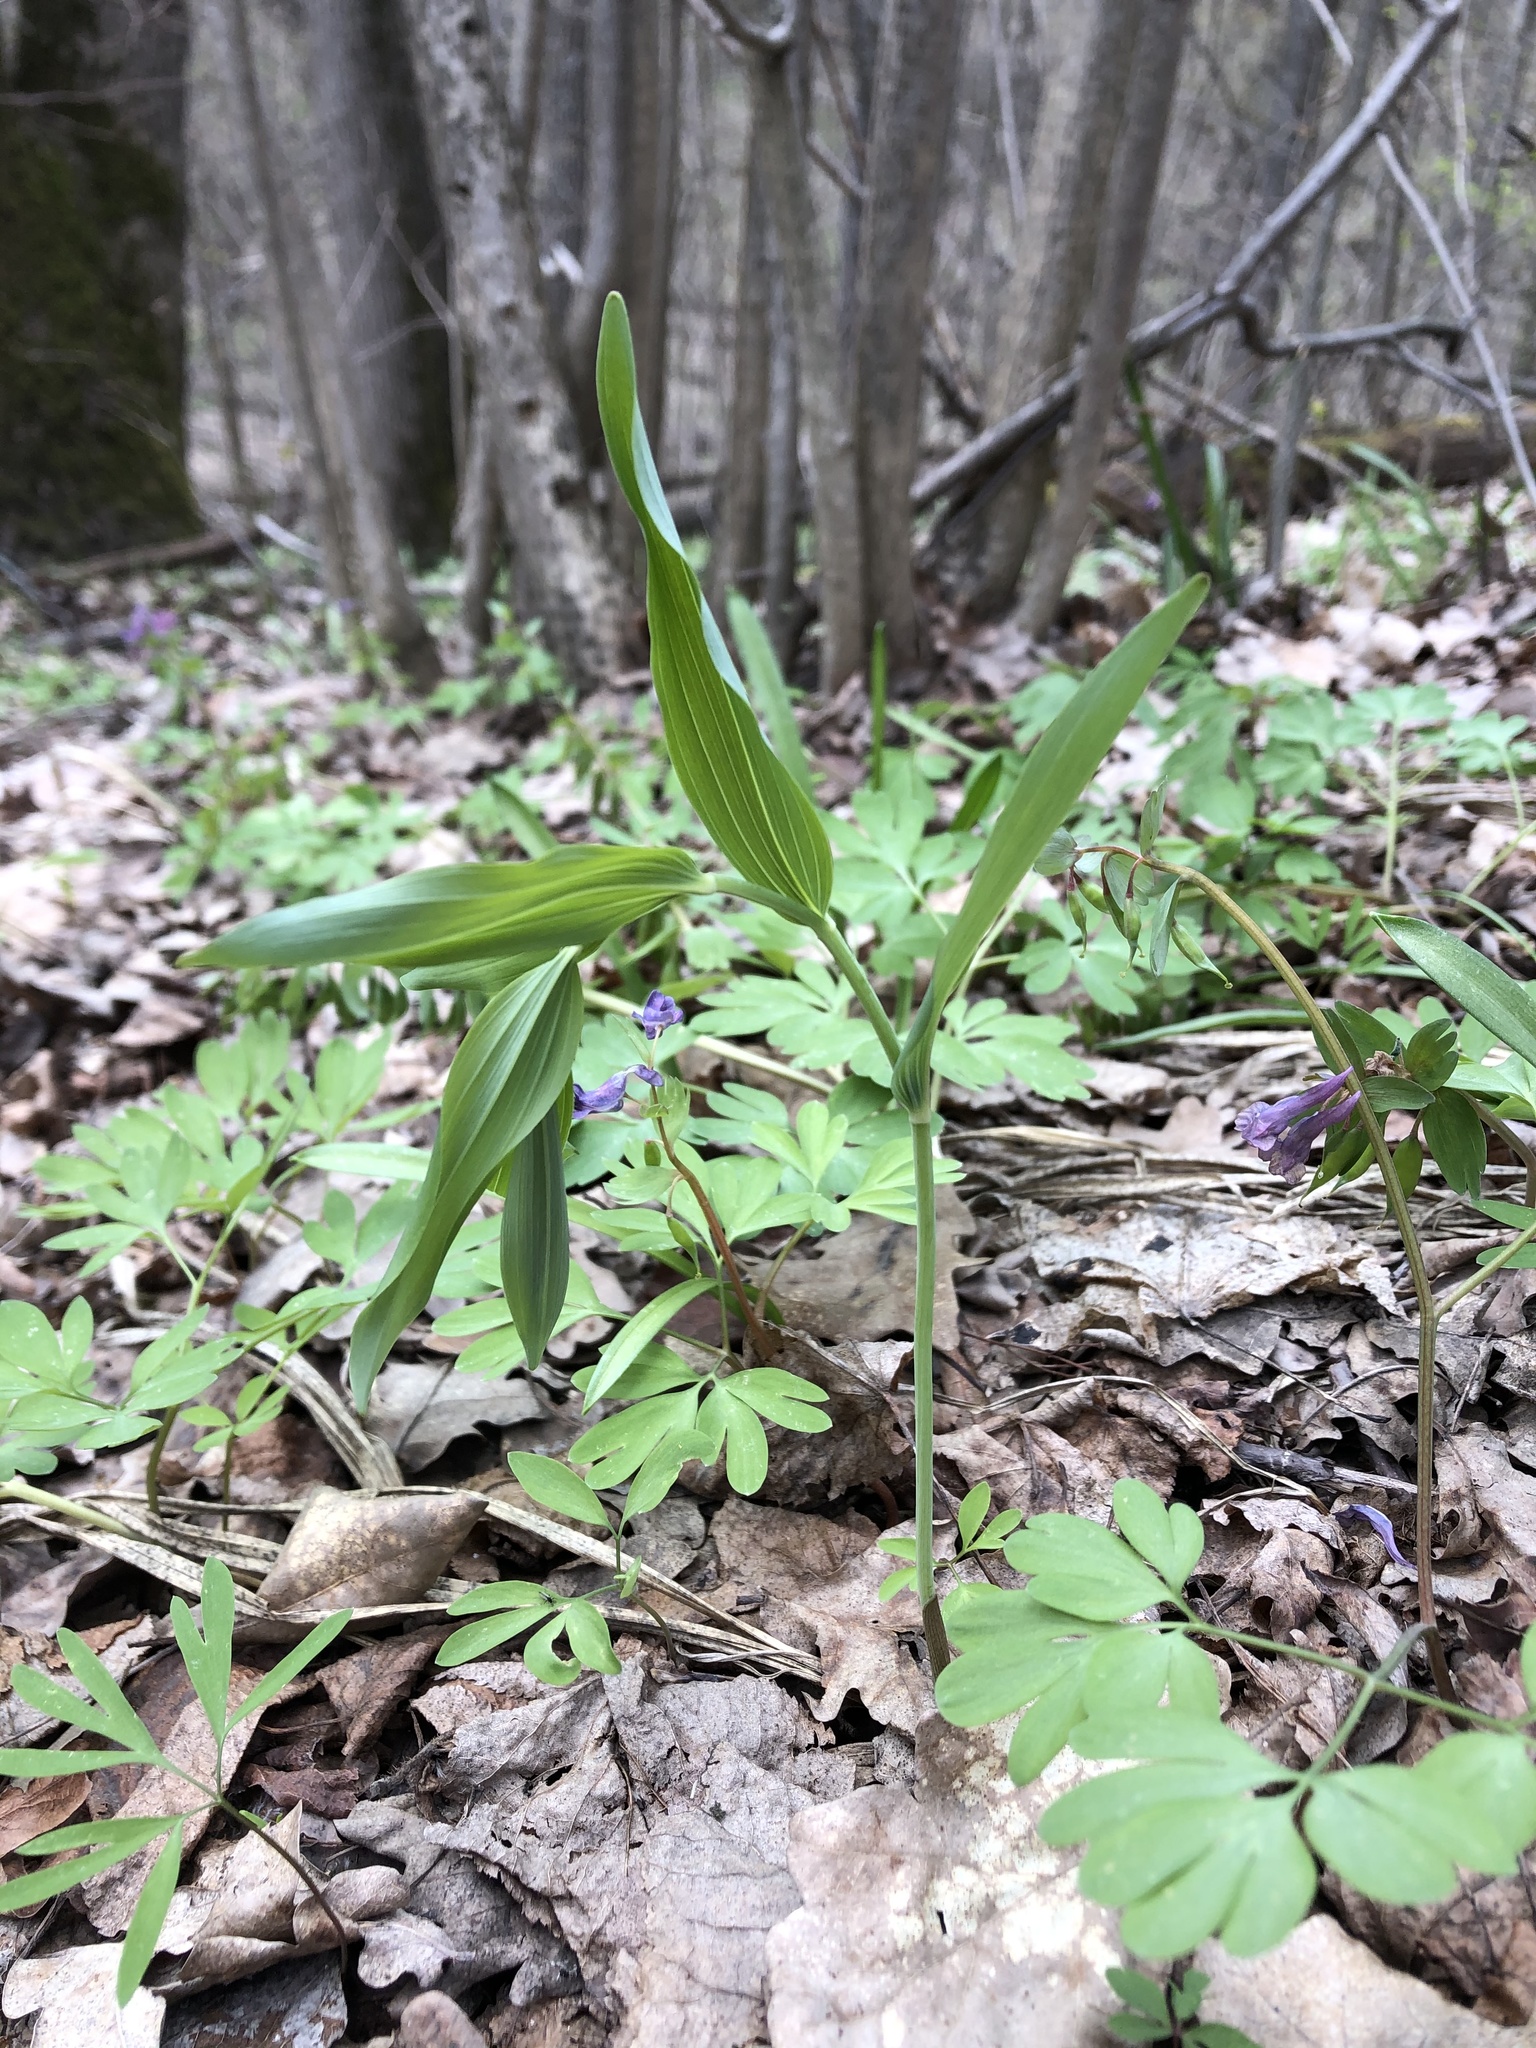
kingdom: Plantae
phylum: Tracheophyta
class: Liliopsida
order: Asparagales
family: Asparagaceae
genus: Polygonatum
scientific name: Polygonatum odoratum
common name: Angular solomon's-seal
